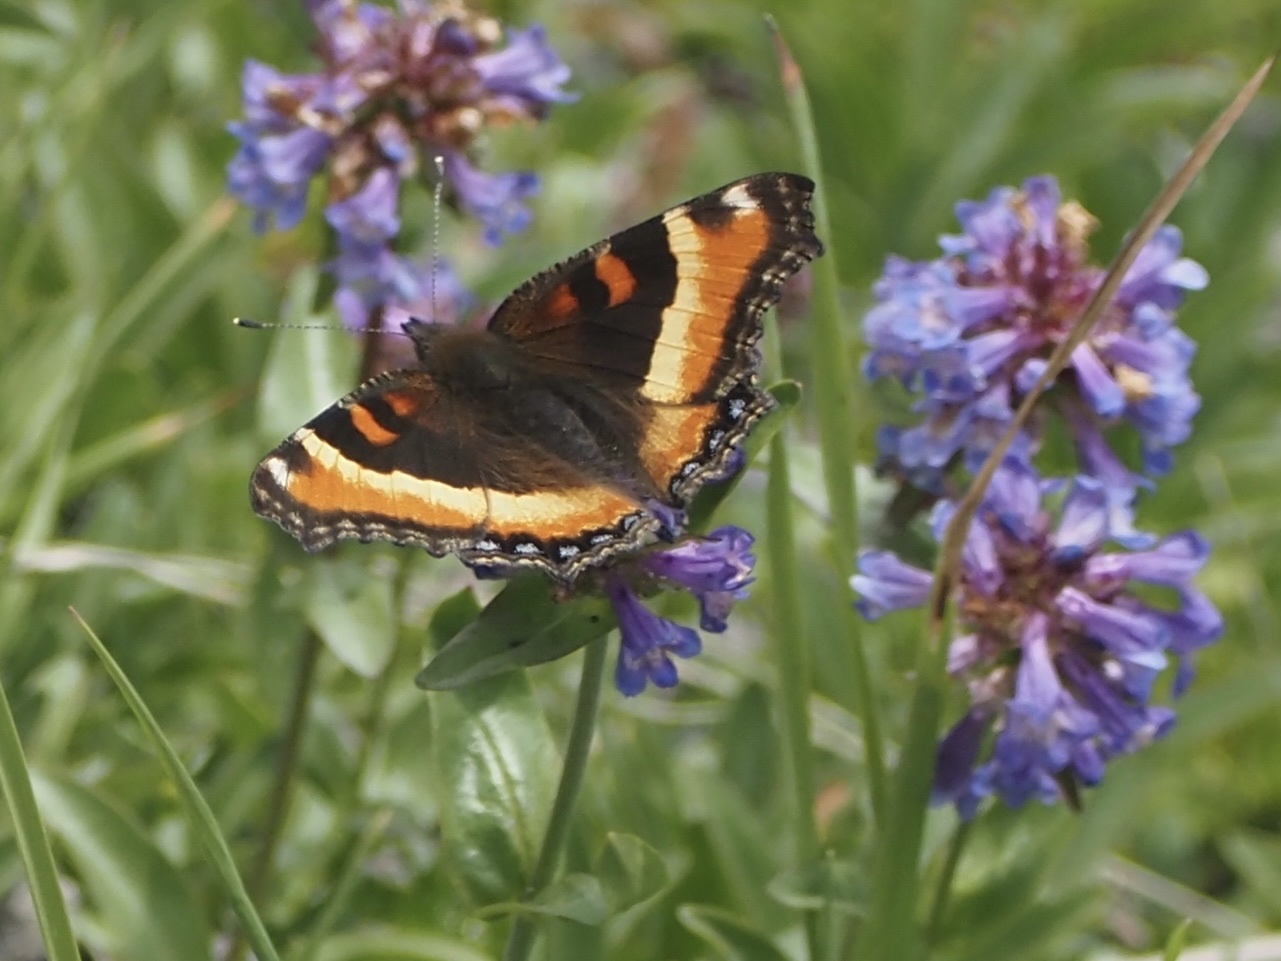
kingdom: Animalia
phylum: Arthropoda
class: Insecta
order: Lepidoptera
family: Nymphalidae
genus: Aglais
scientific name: Aglais milberti
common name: Milbert's tortoiseshell
